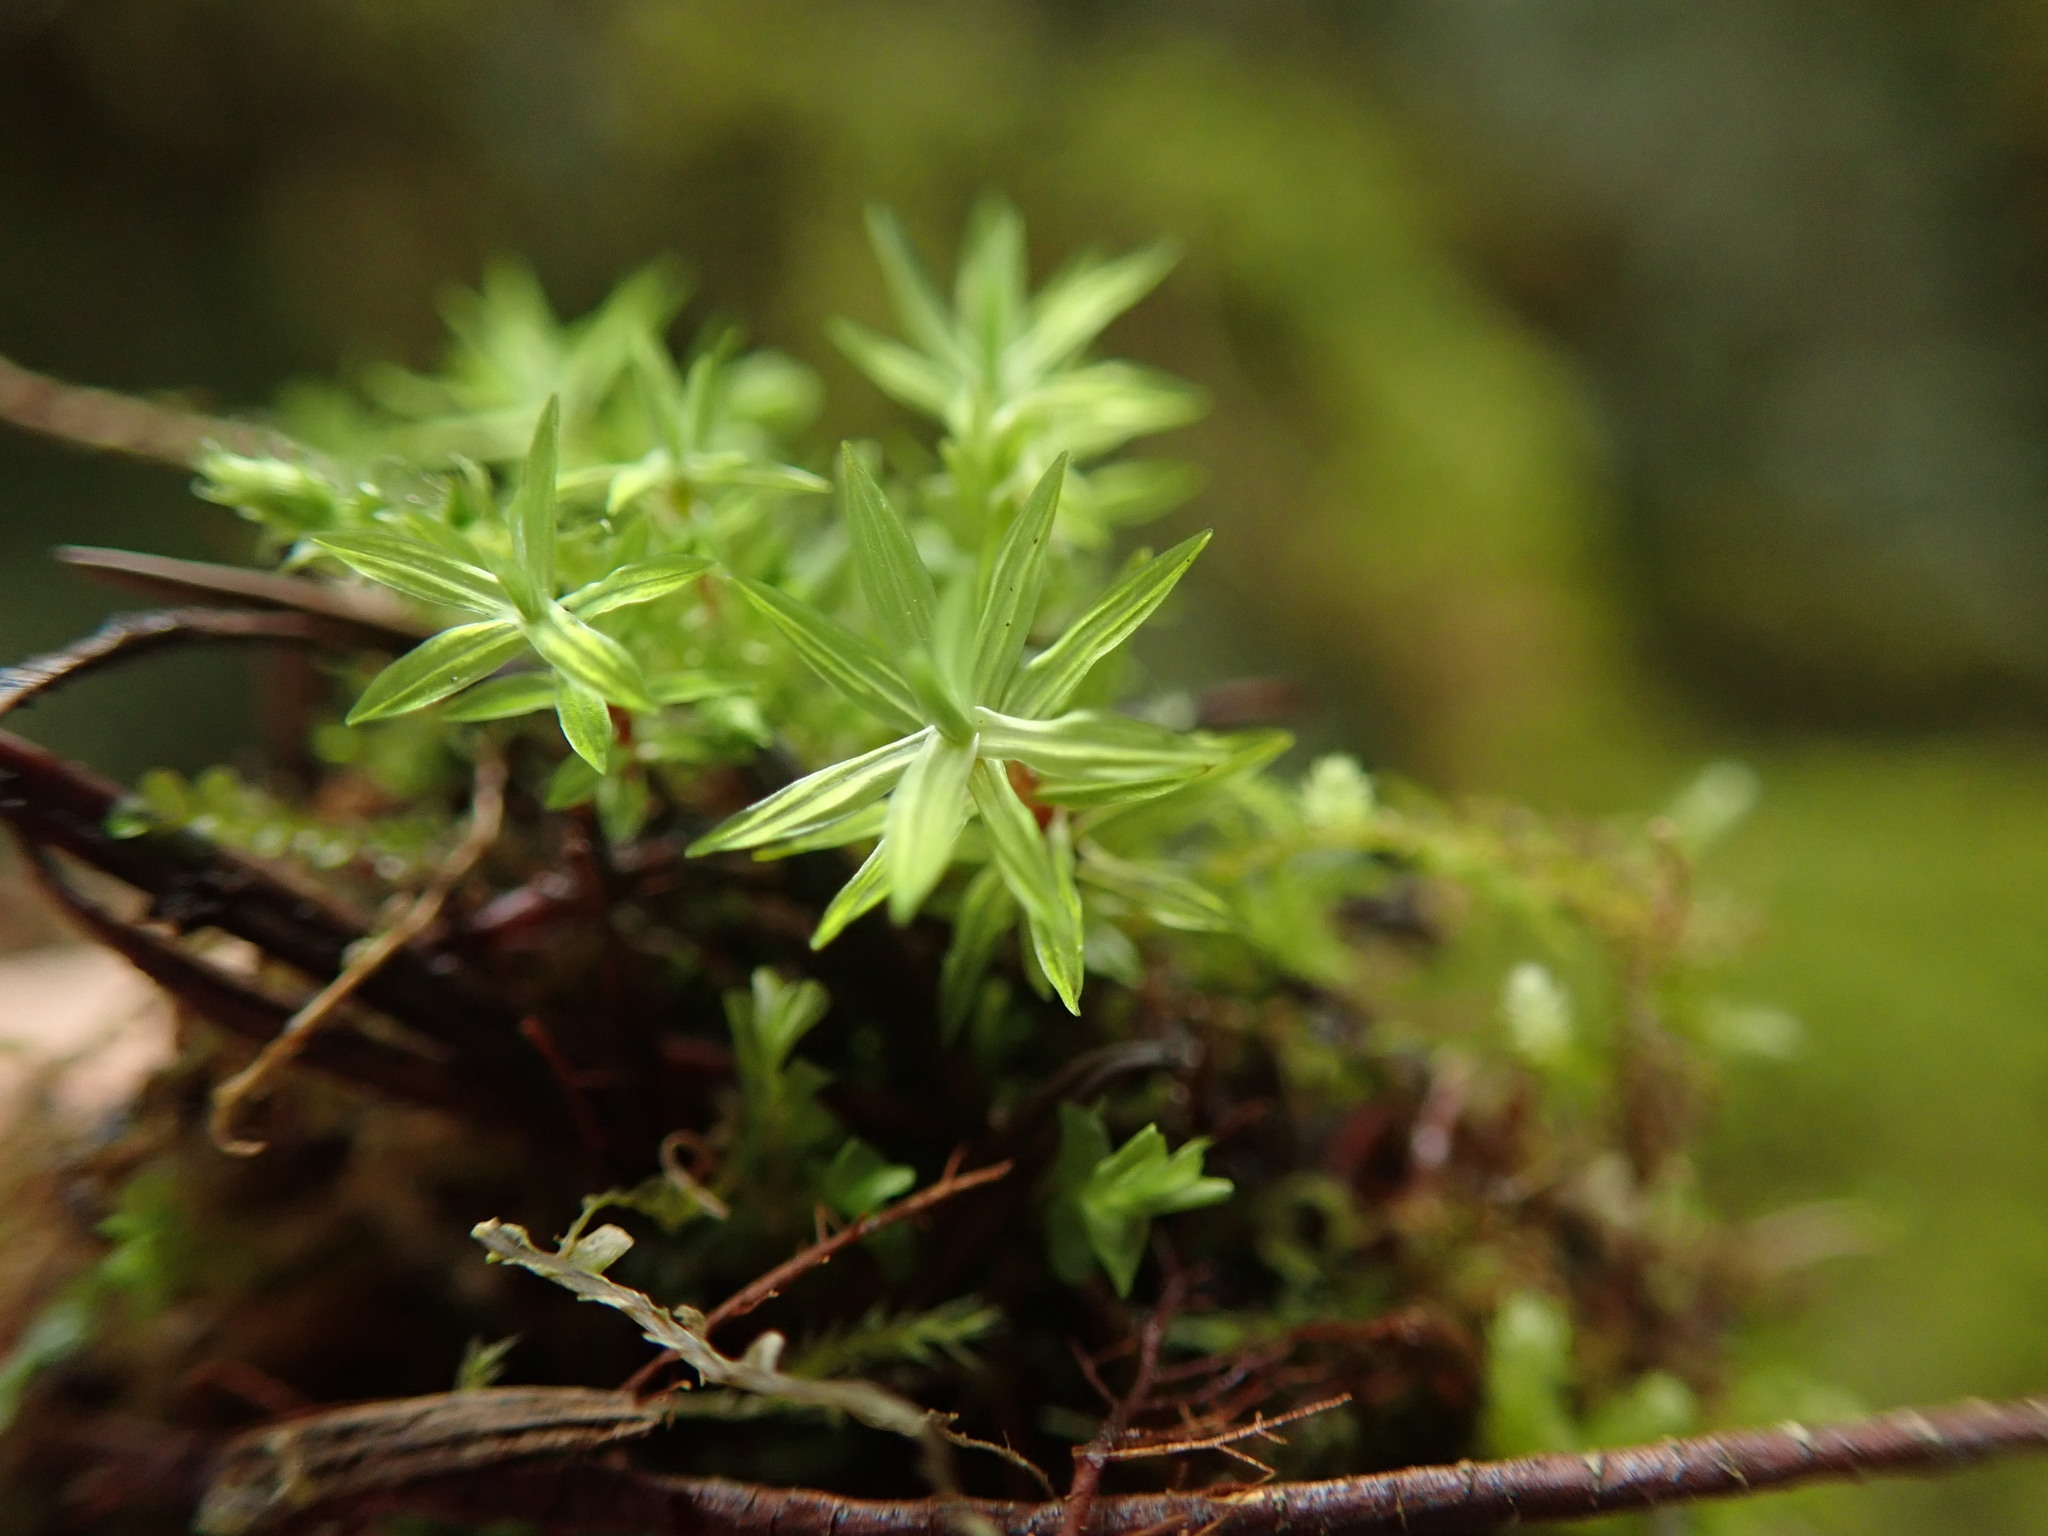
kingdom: Plantae
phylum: Bryophyta
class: Bryopsida
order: Timmiales
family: Timmiaceae
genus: Timmia
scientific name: Timmia austriaca
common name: Austrian timmia
